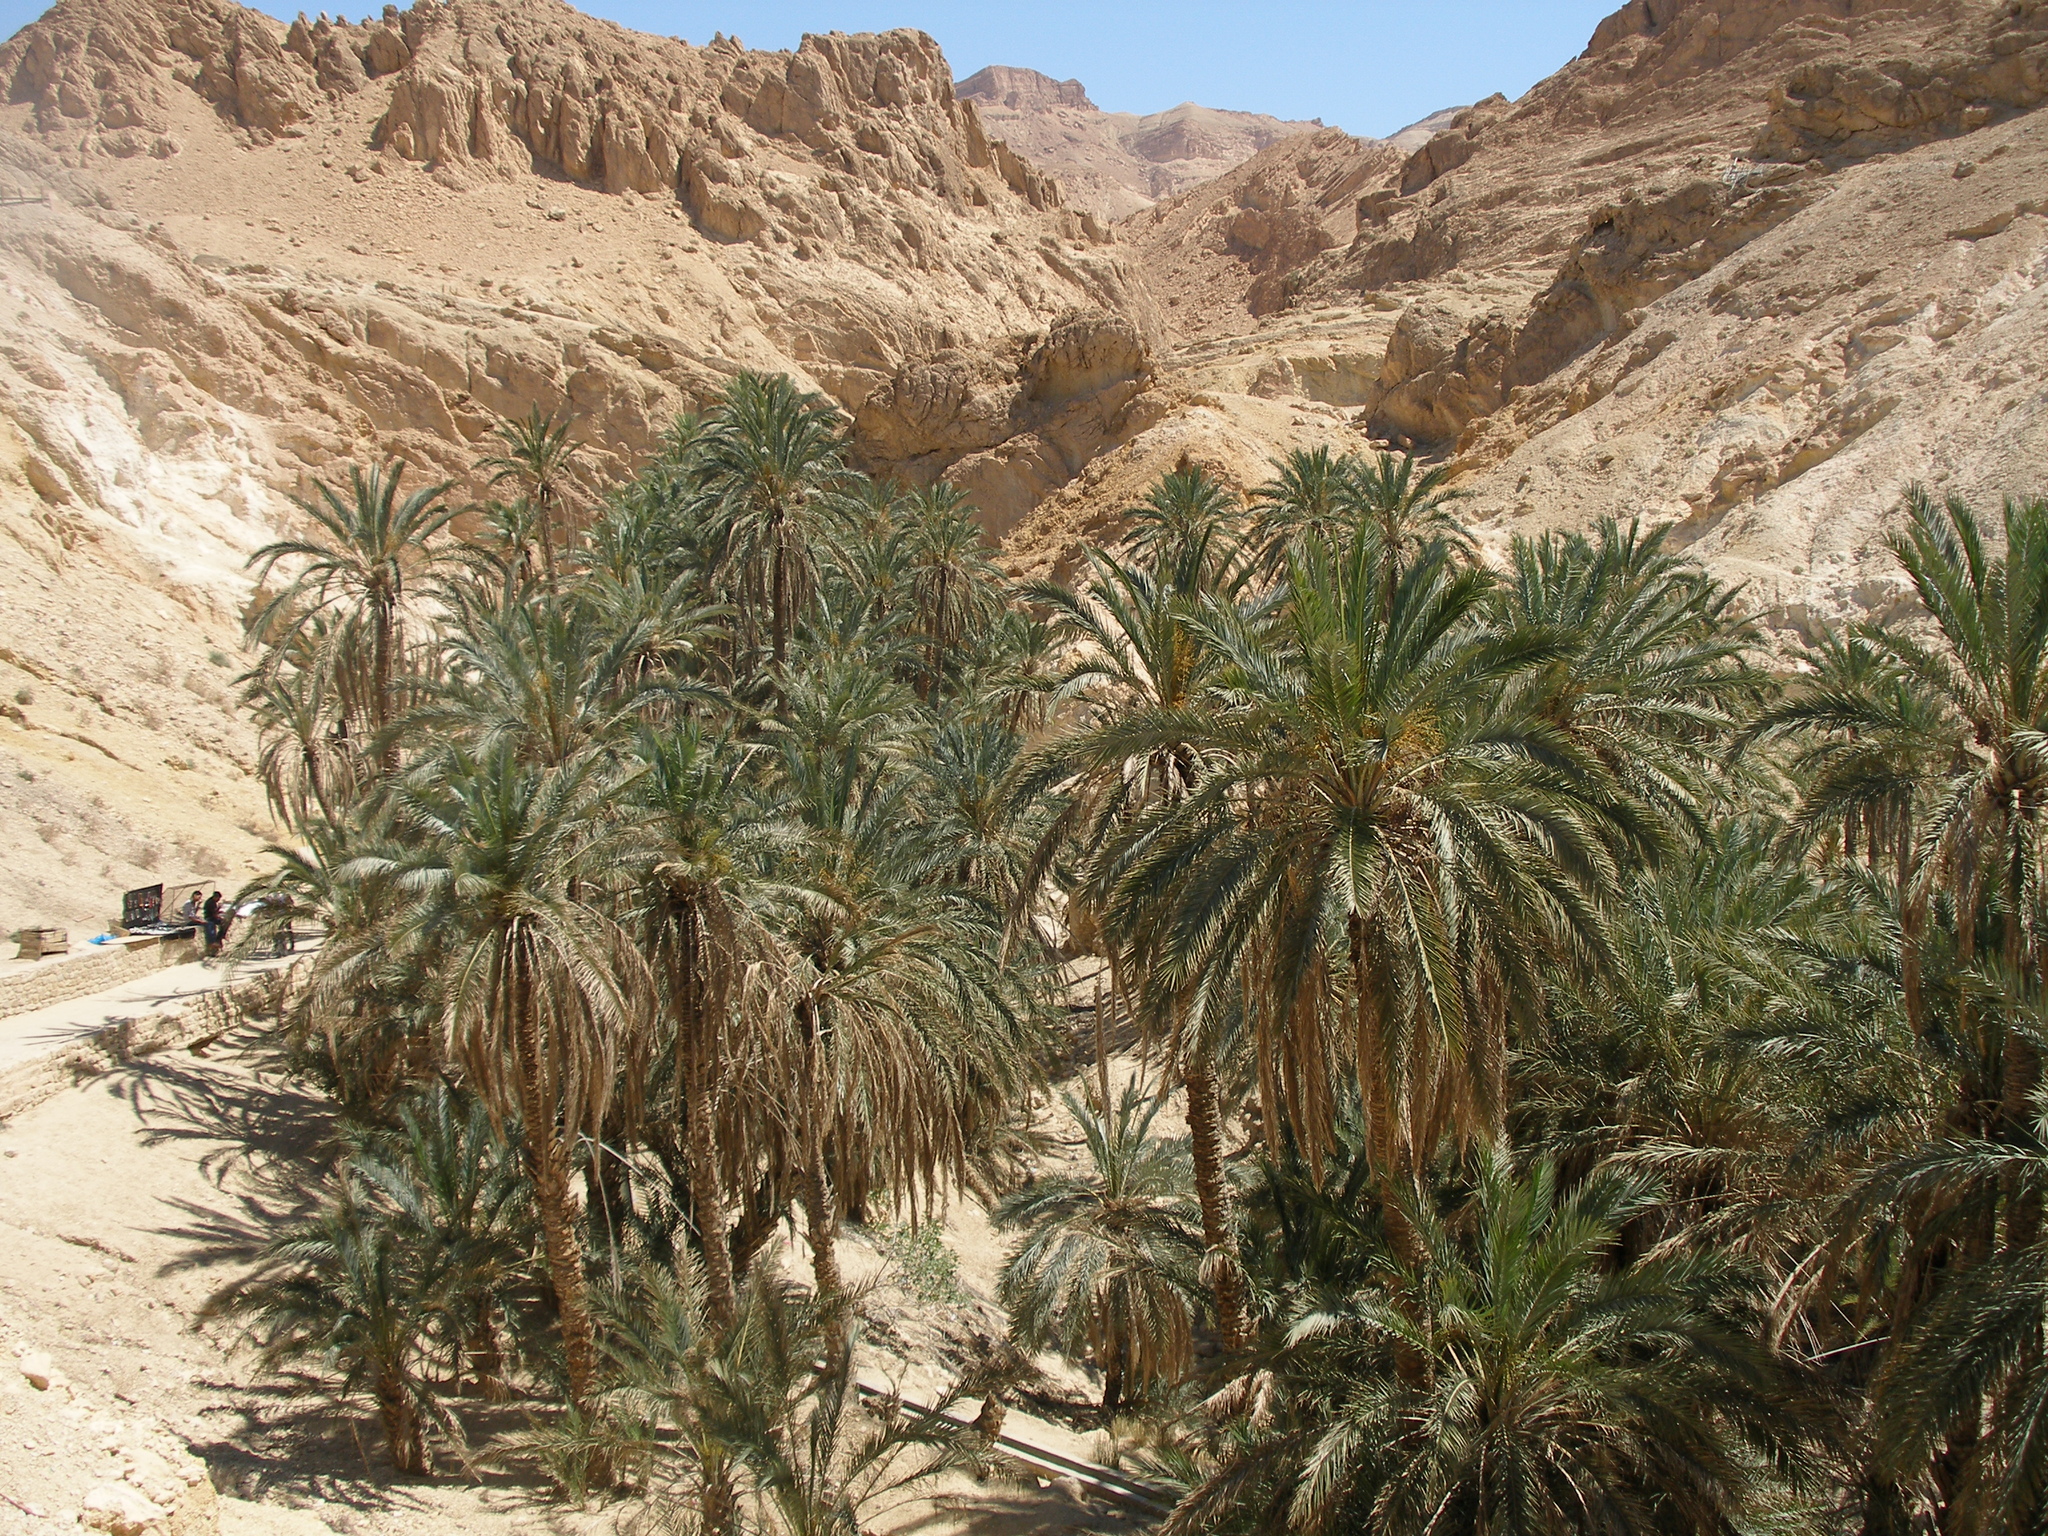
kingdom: Plantae
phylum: Tracheophyta
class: Liliopsida
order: Arecales
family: Arecaceae
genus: Phoenix
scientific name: Phoenix dactylifera
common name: Date palm
